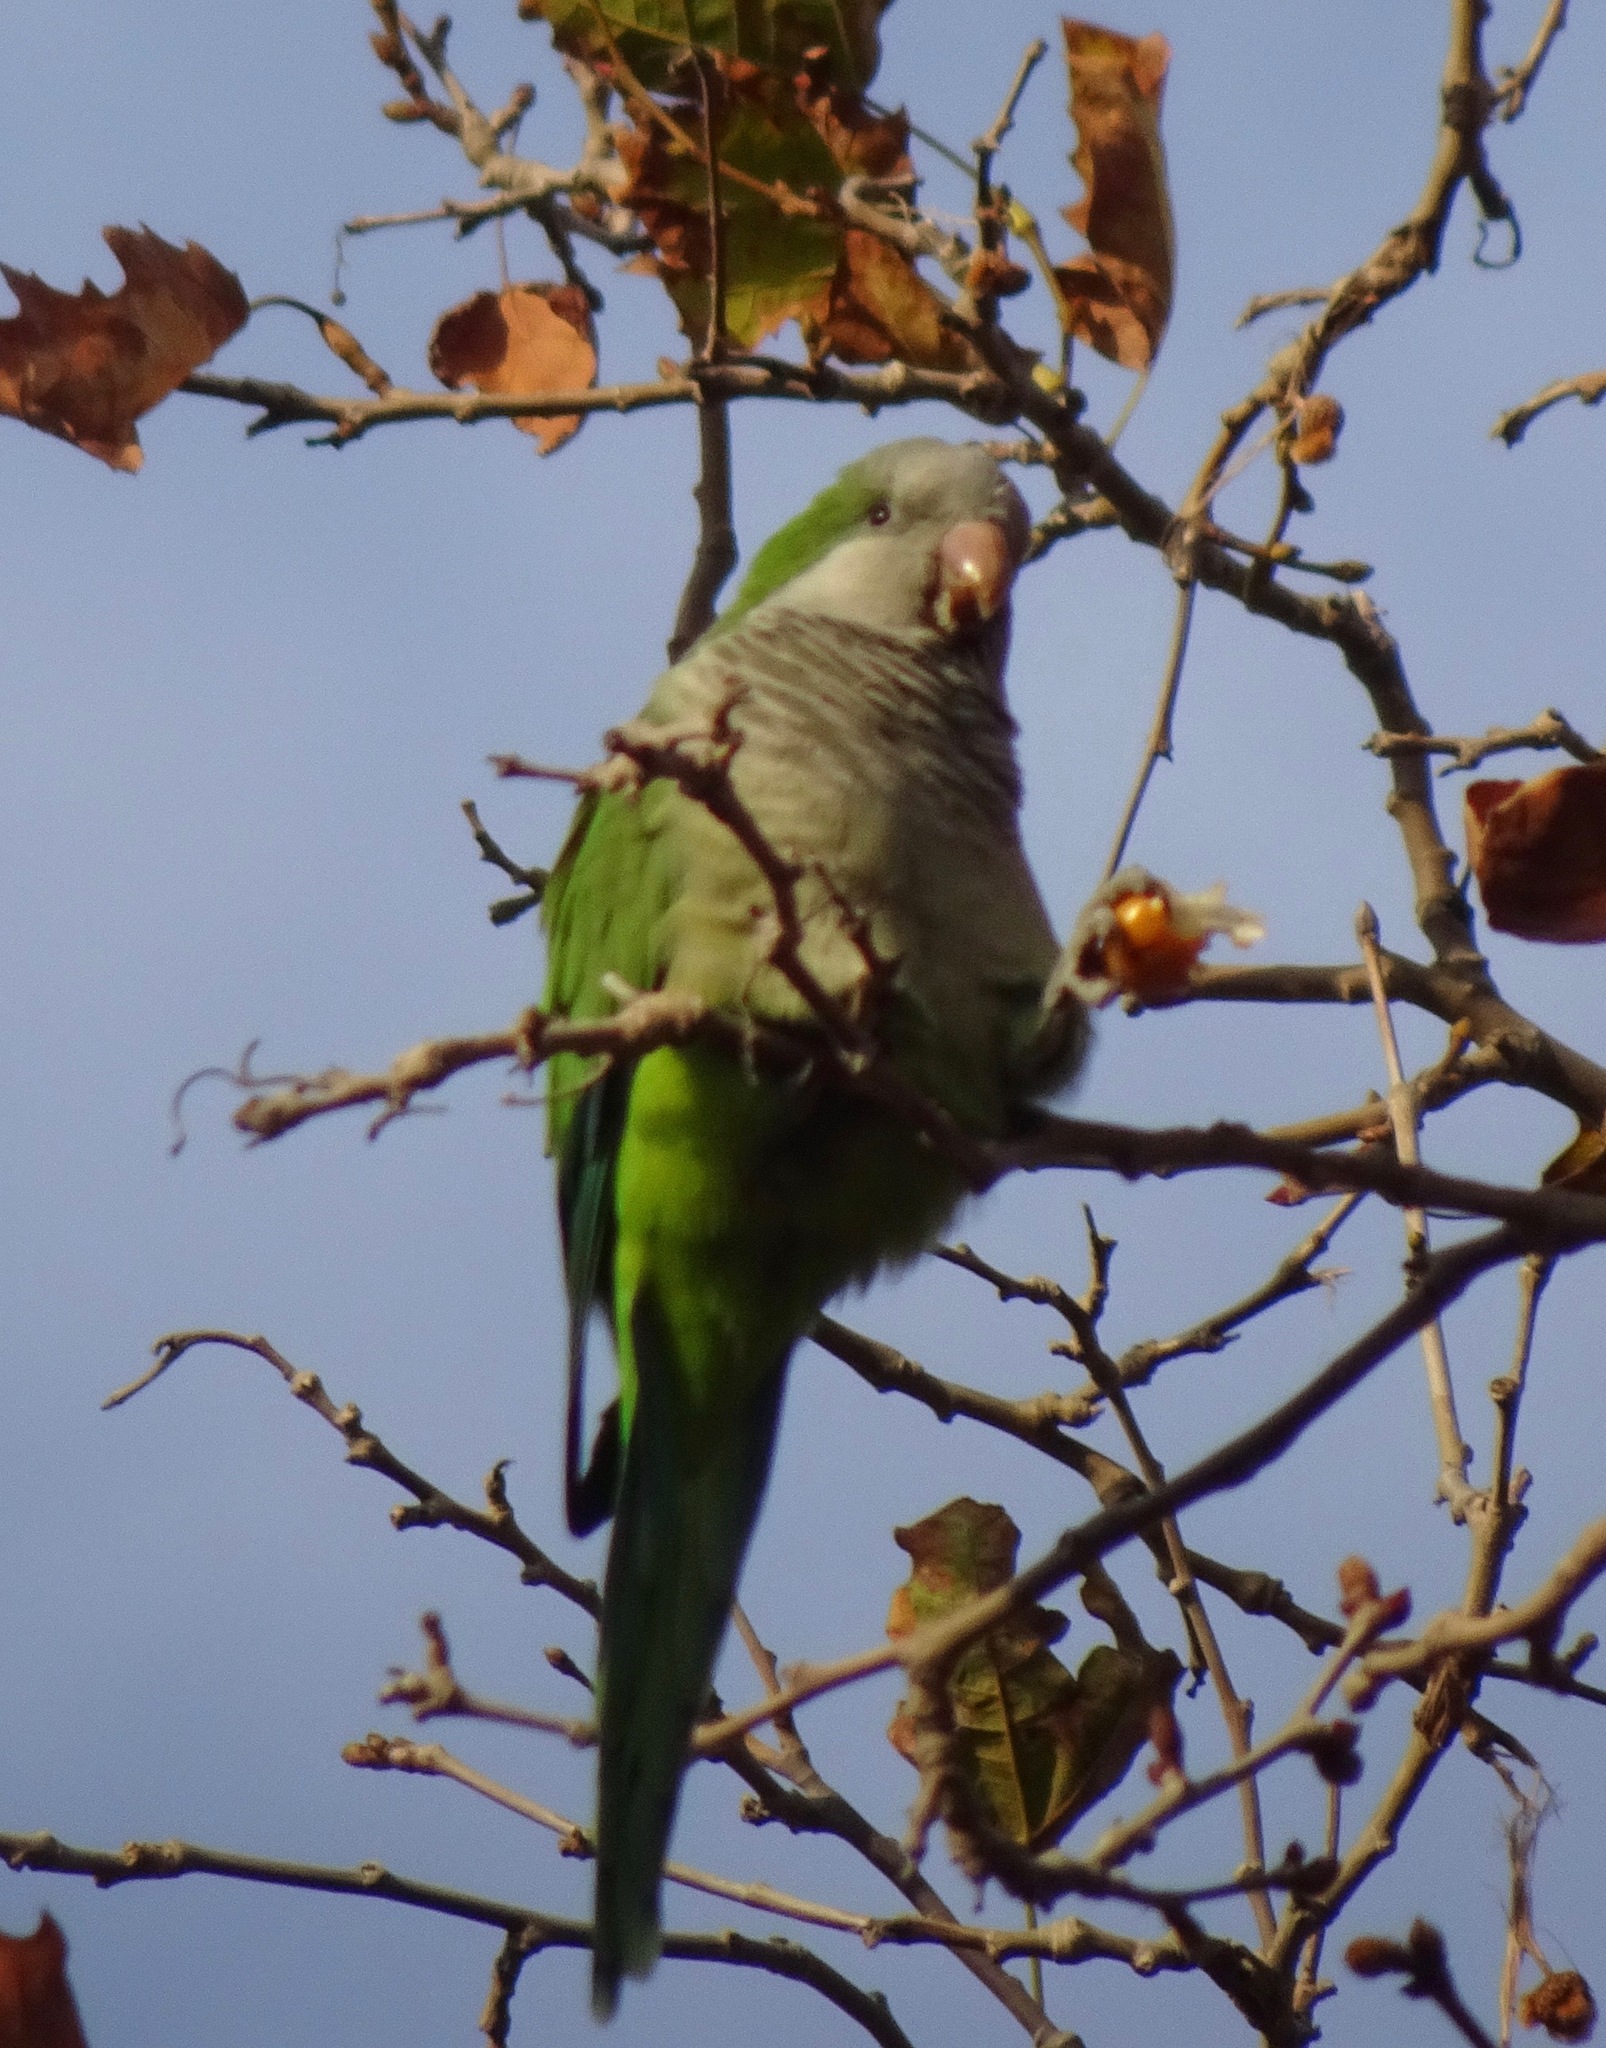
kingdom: Animalia
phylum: Chordata
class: Aves
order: Psittaciformes
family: Psittacidae
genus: Myiopsitta
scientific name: Myiopsitta monachus
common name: Monk parakeet
